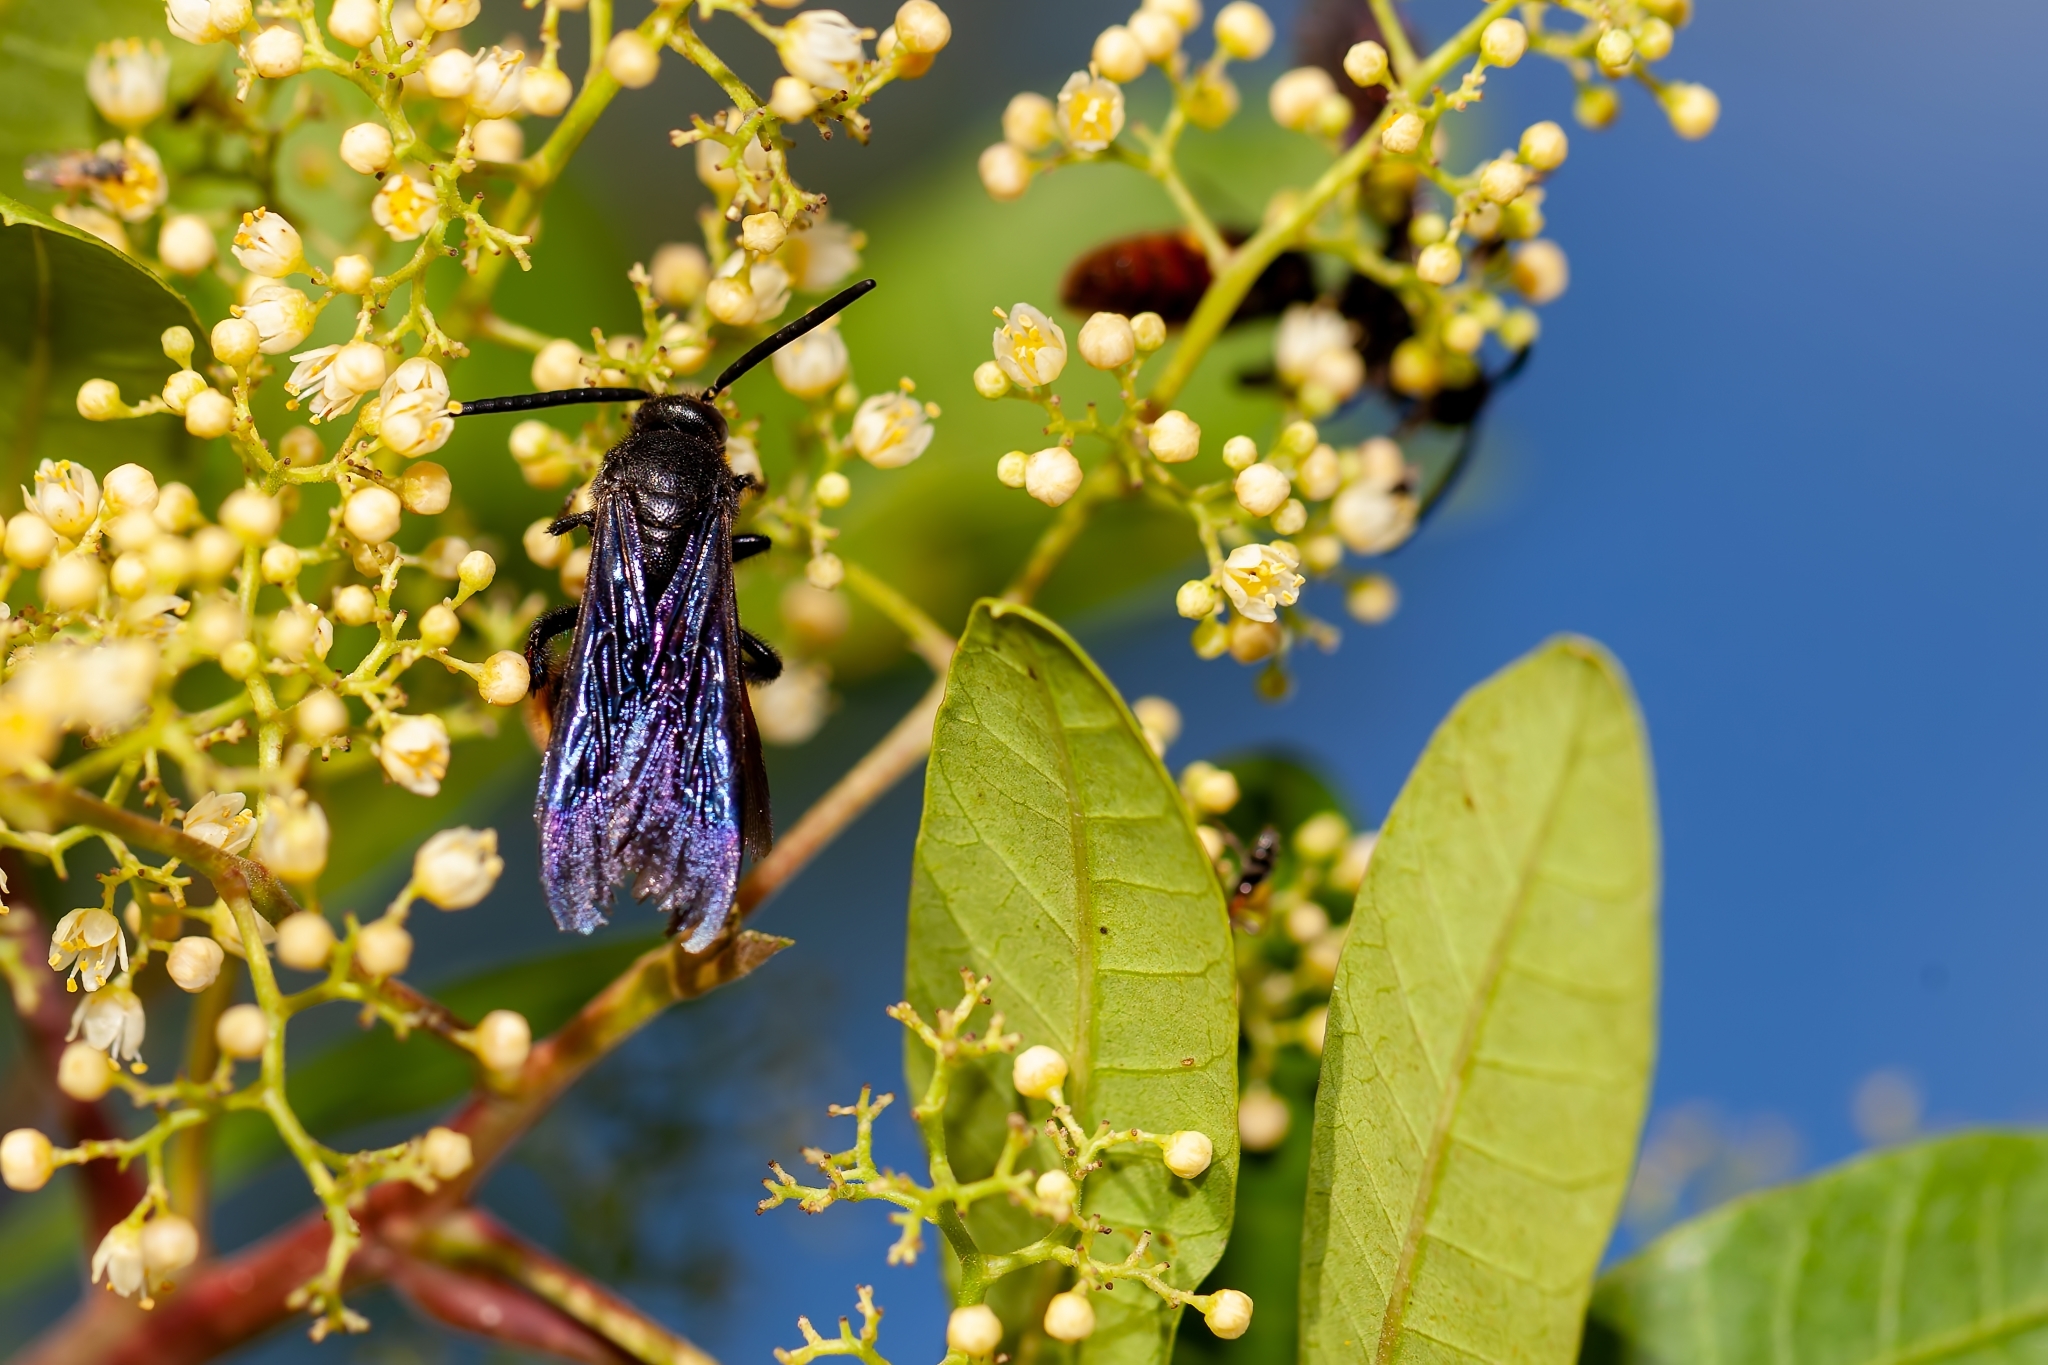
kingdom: Animalia
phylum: Arthropoda
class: Insecta
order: Hymenoptera
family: Scoliidae
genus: Scolia
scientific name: Scolia dubia
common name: Blue-winged scoliid wasp
